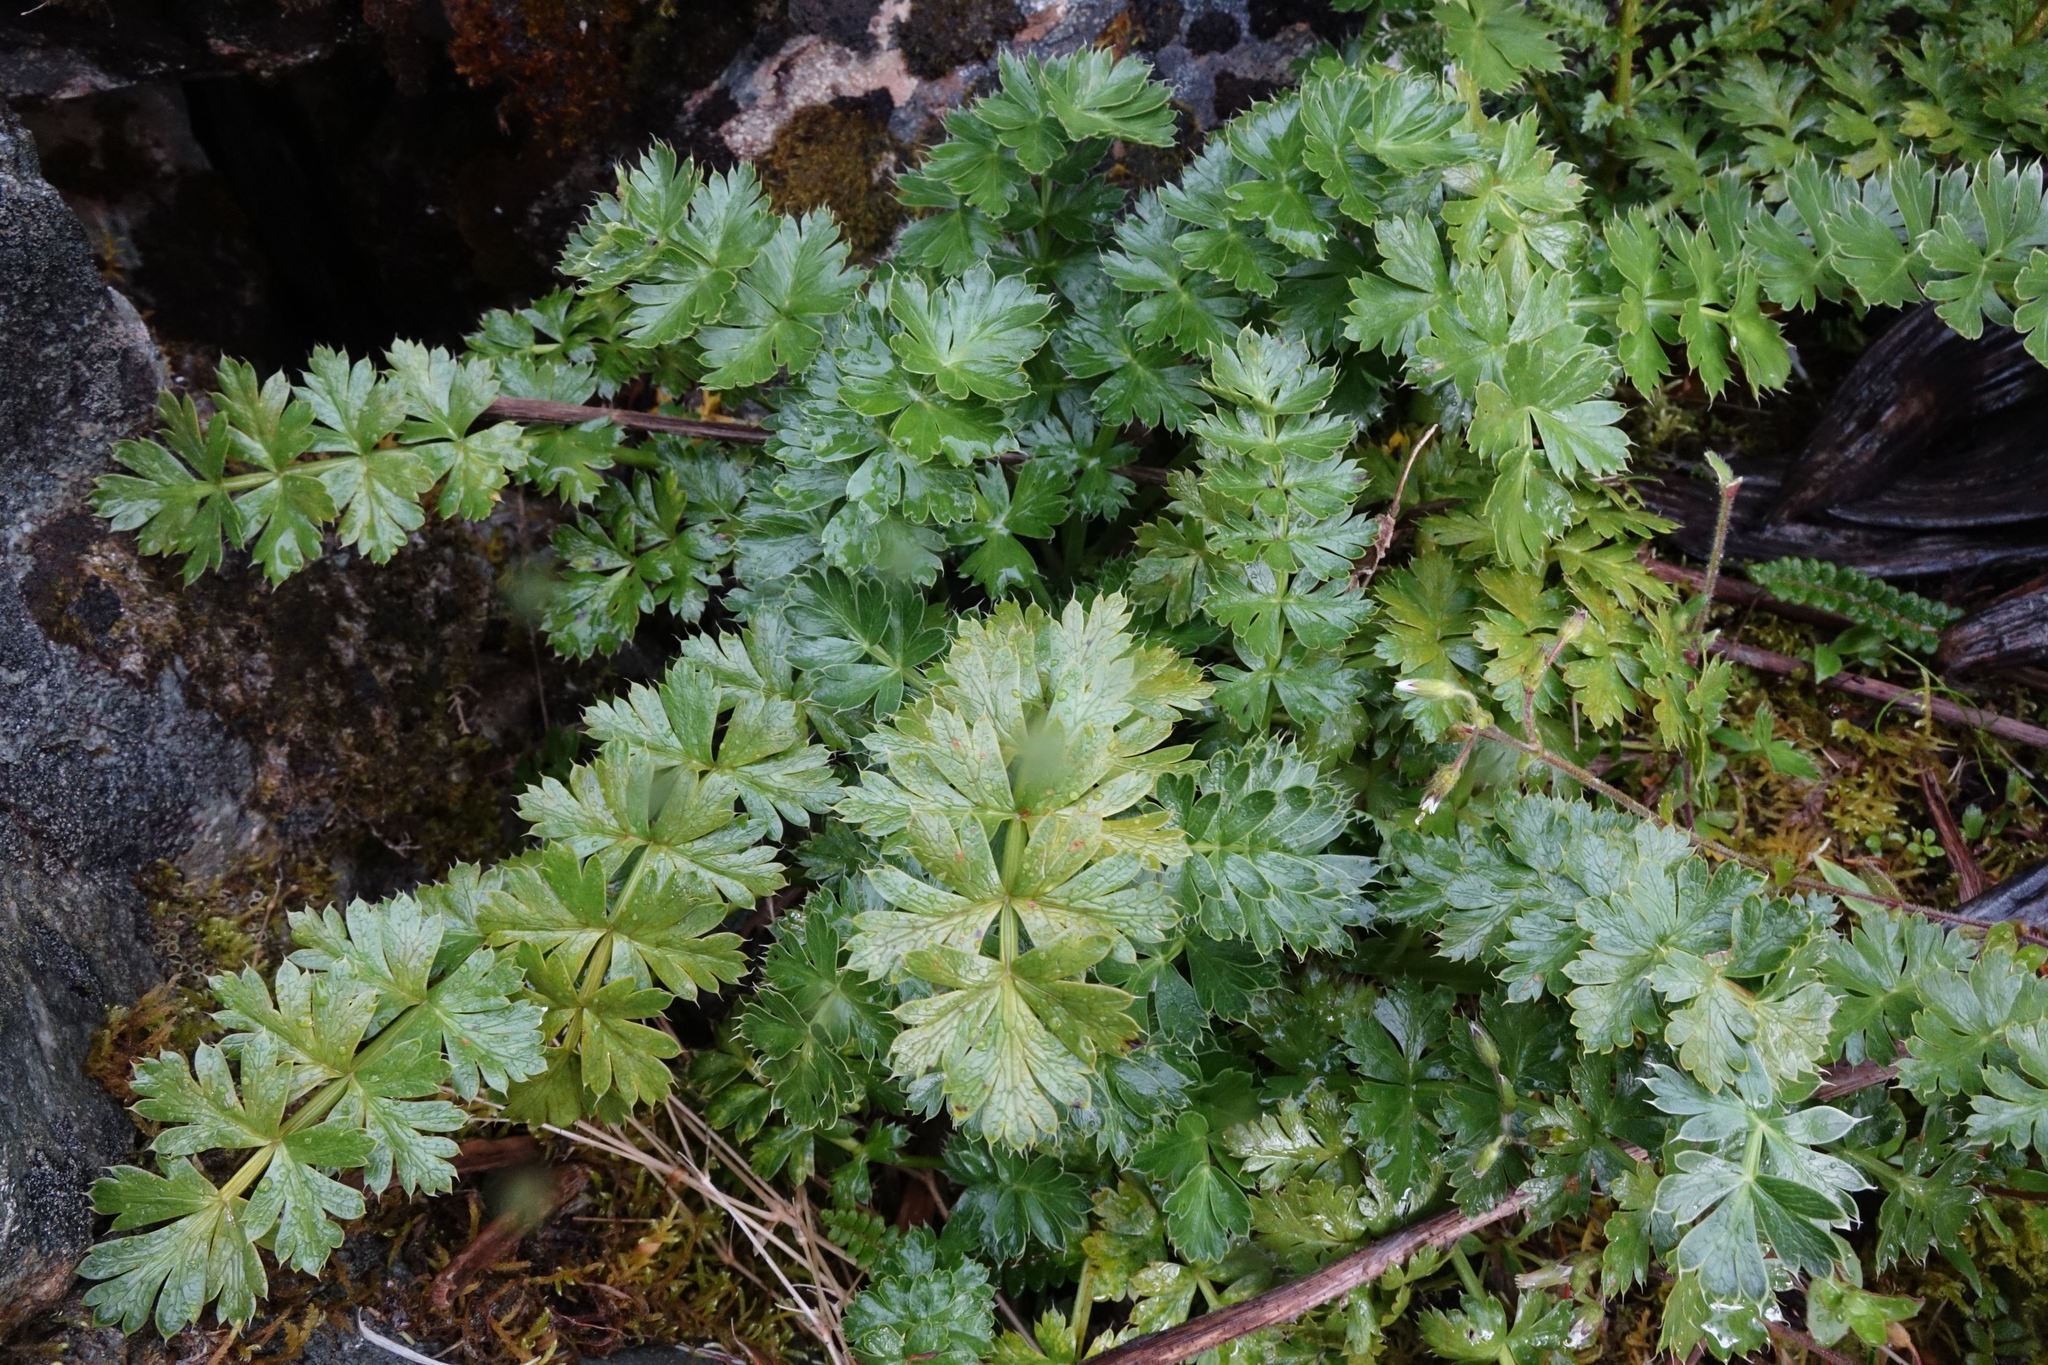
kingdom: Plantae
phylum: Tracheophyta
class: Magnoliopsida
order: Apiales
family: Apiaceae
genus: Anisotome
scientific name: Anisotome pilifera
